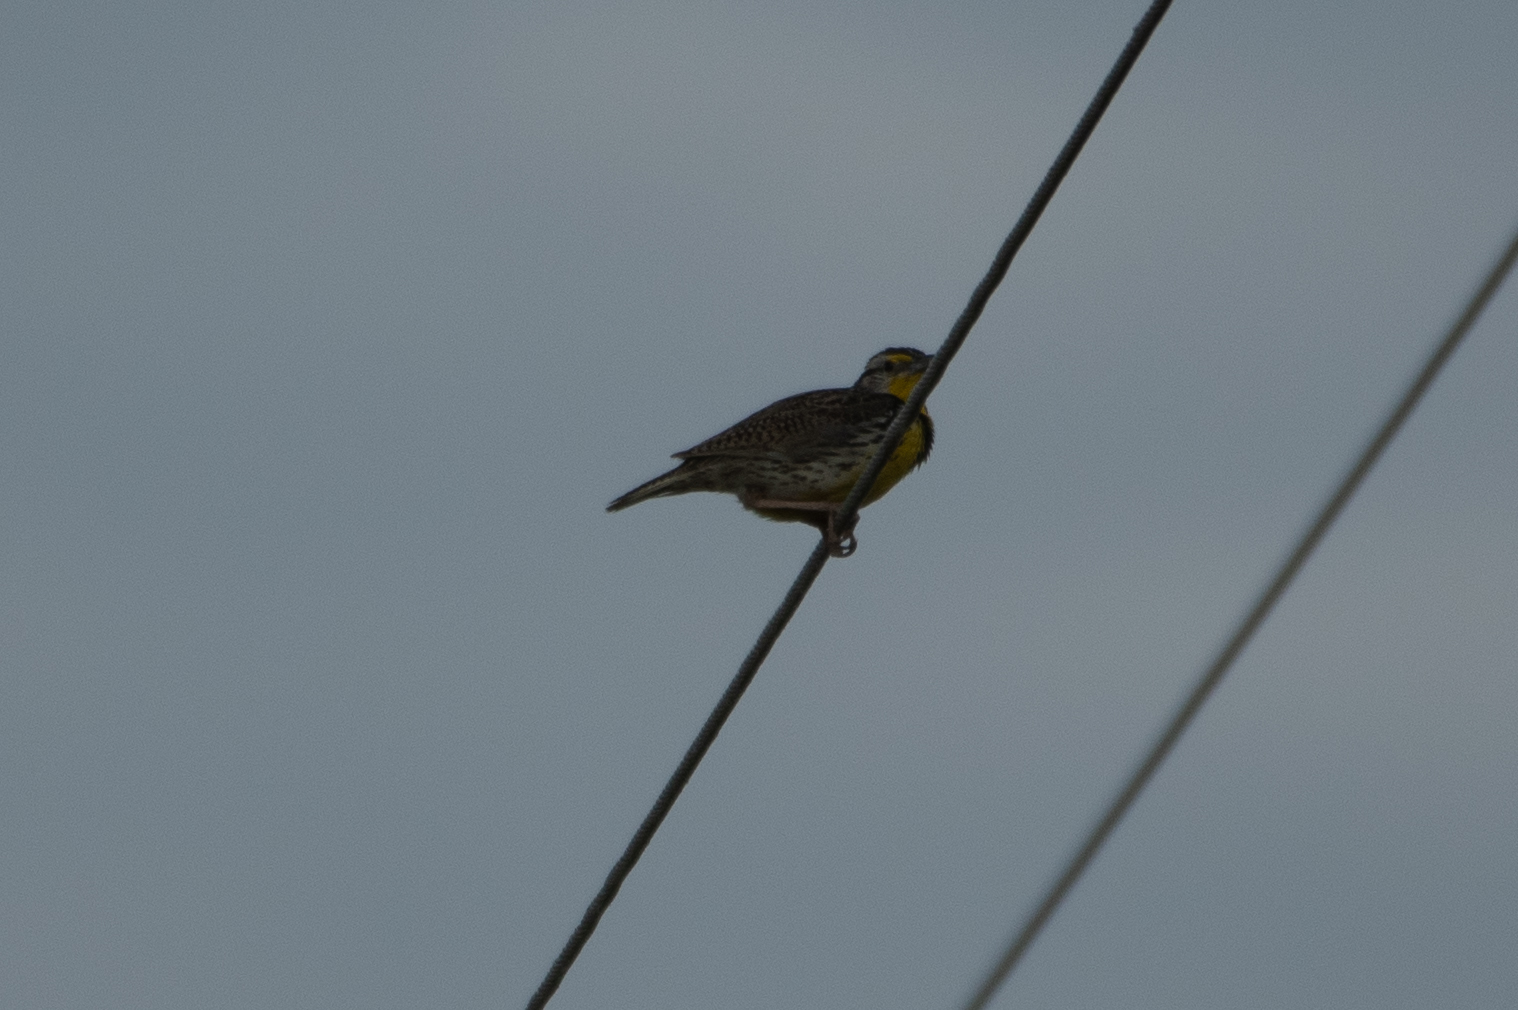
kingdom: Animalia
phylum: Chordata
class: Aves
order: Passeriformes
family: Icteridae
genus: Sturnella
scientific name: Sturnella neglecta
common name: Western meadowlark
